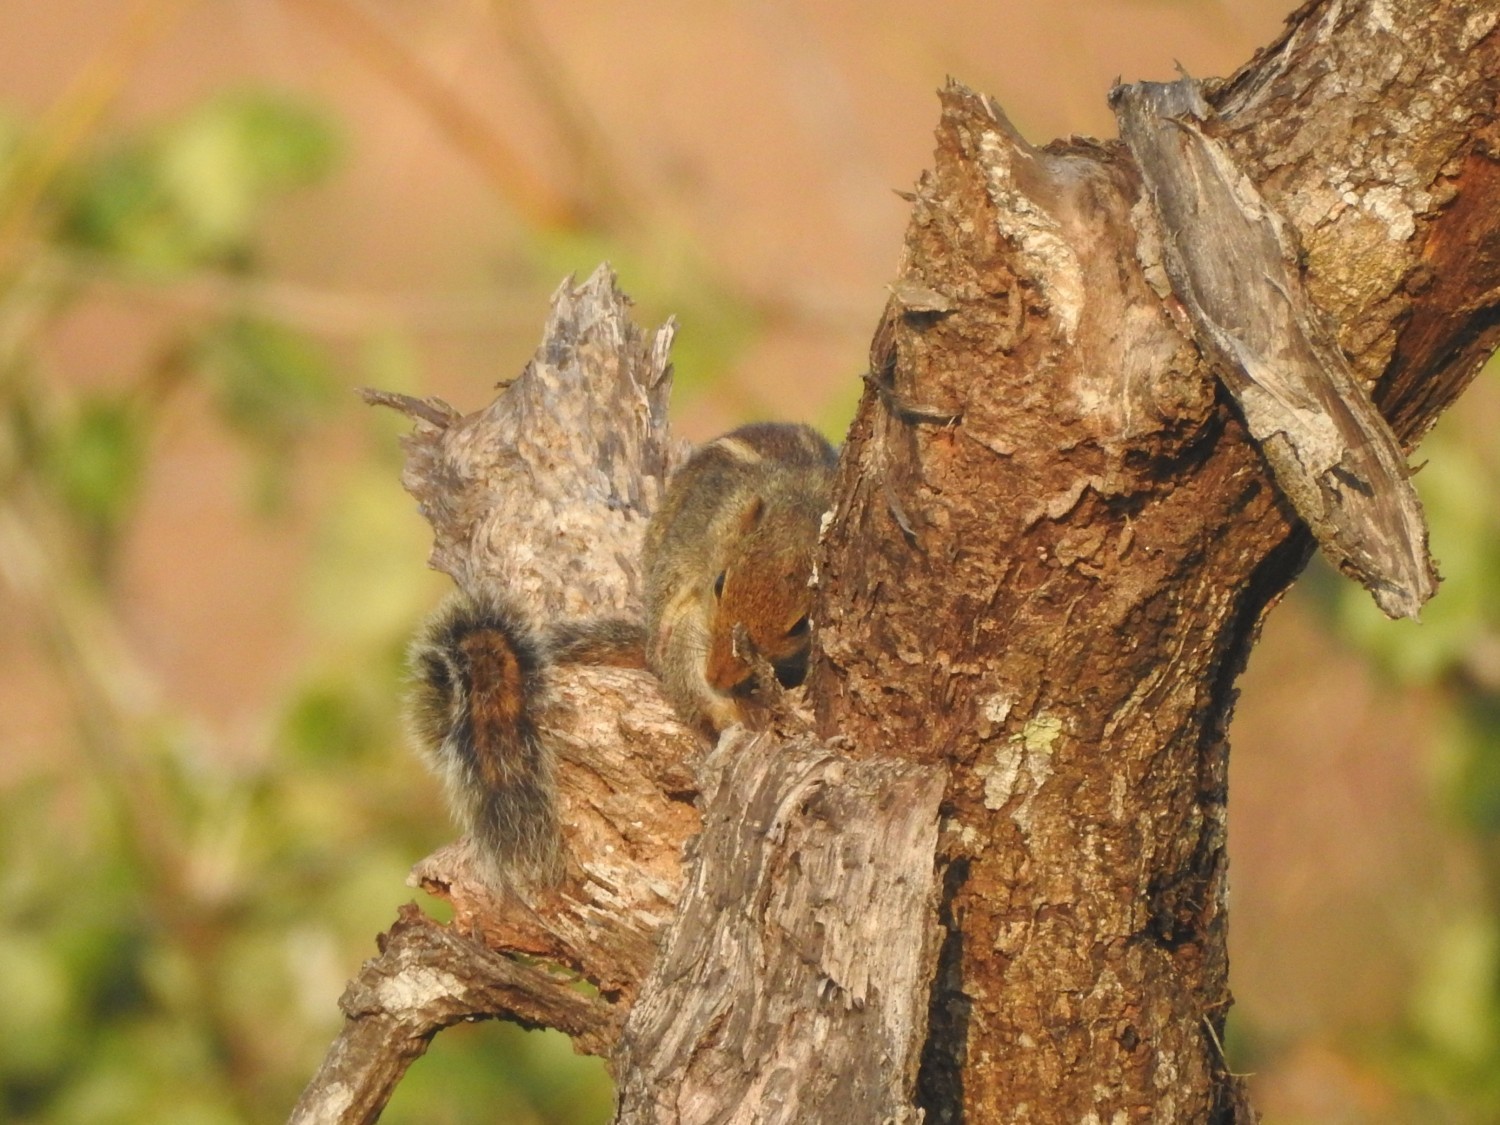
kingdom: Animalia
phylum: Chordata
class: Mammalia
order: Rodentia
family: Sciuridae
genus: Funambulus
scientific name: Funambulus tristriatus
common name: Jungle palm squirrel
